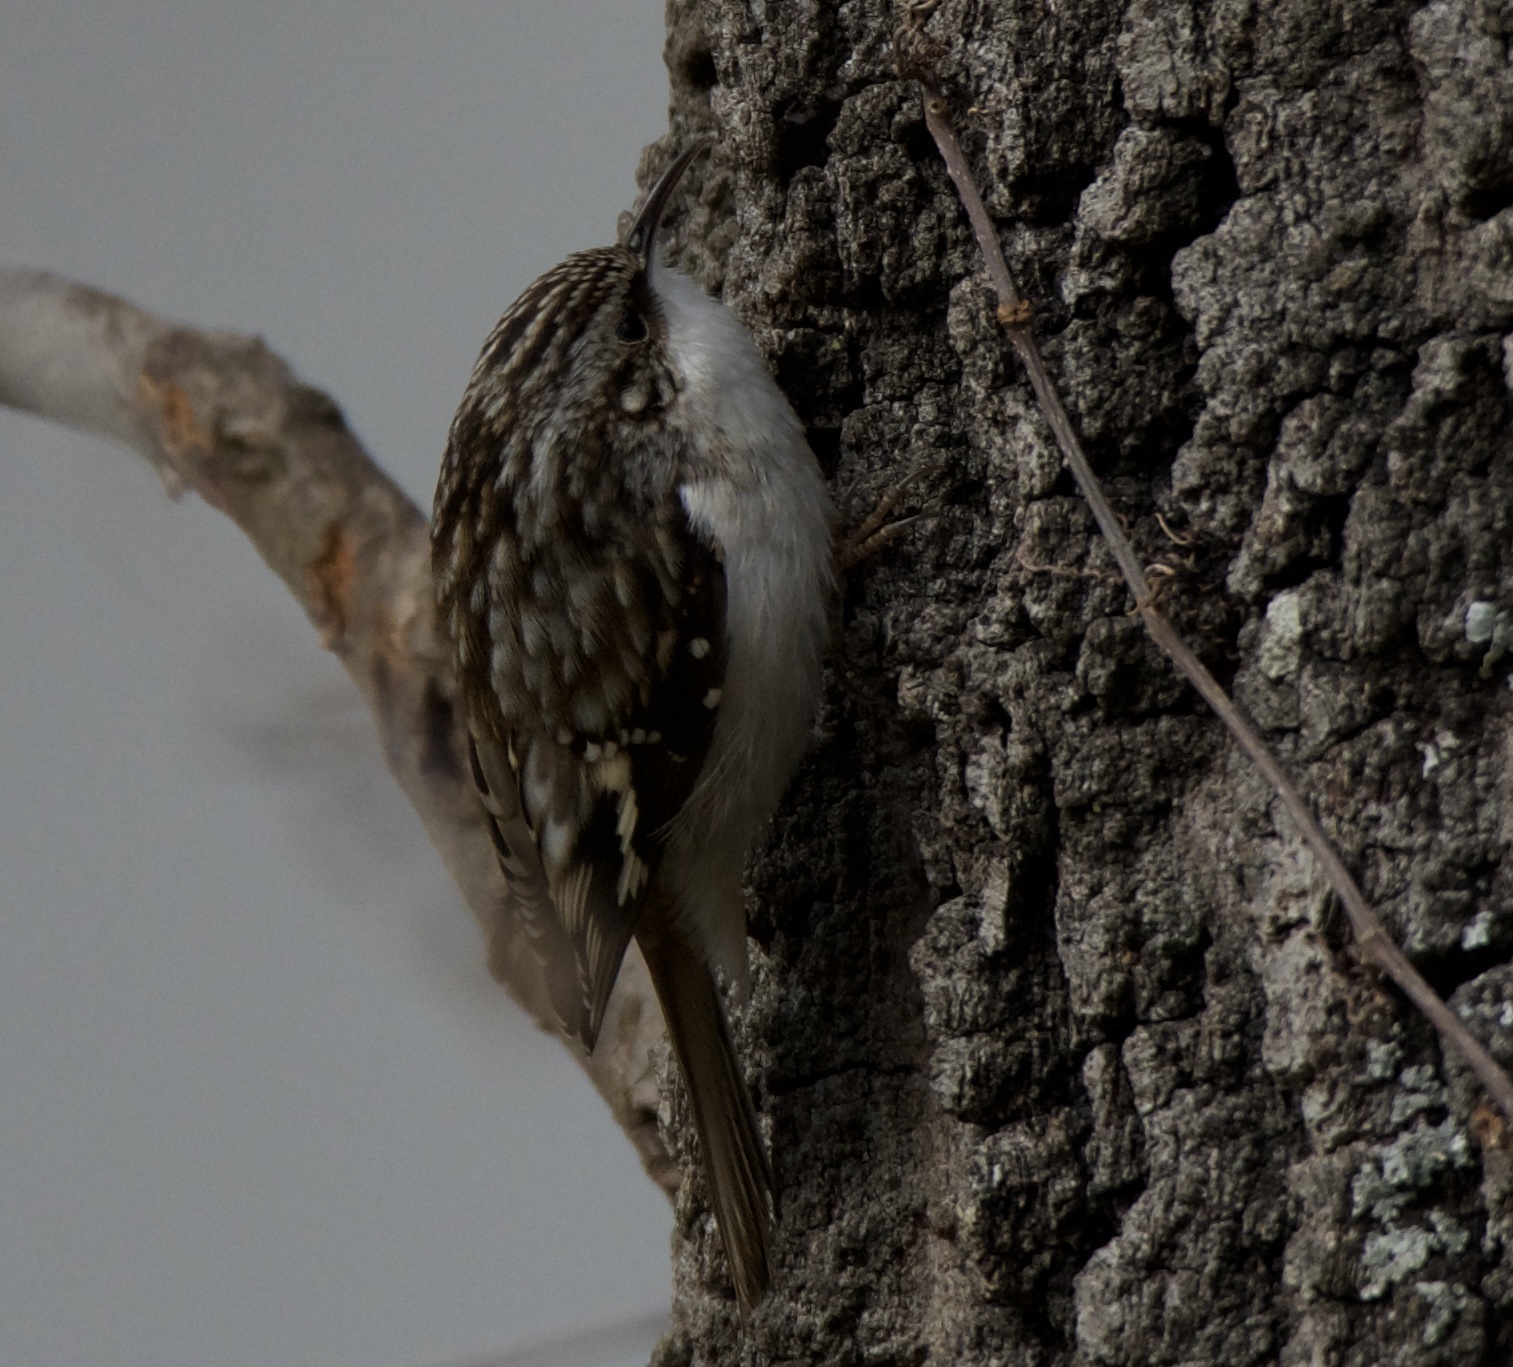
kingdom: Animalia
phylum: Chordata
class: Aves
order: Passeriformes
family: Certhiidae
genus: Certhia
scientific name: Certhia americana
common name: Brown creeper
